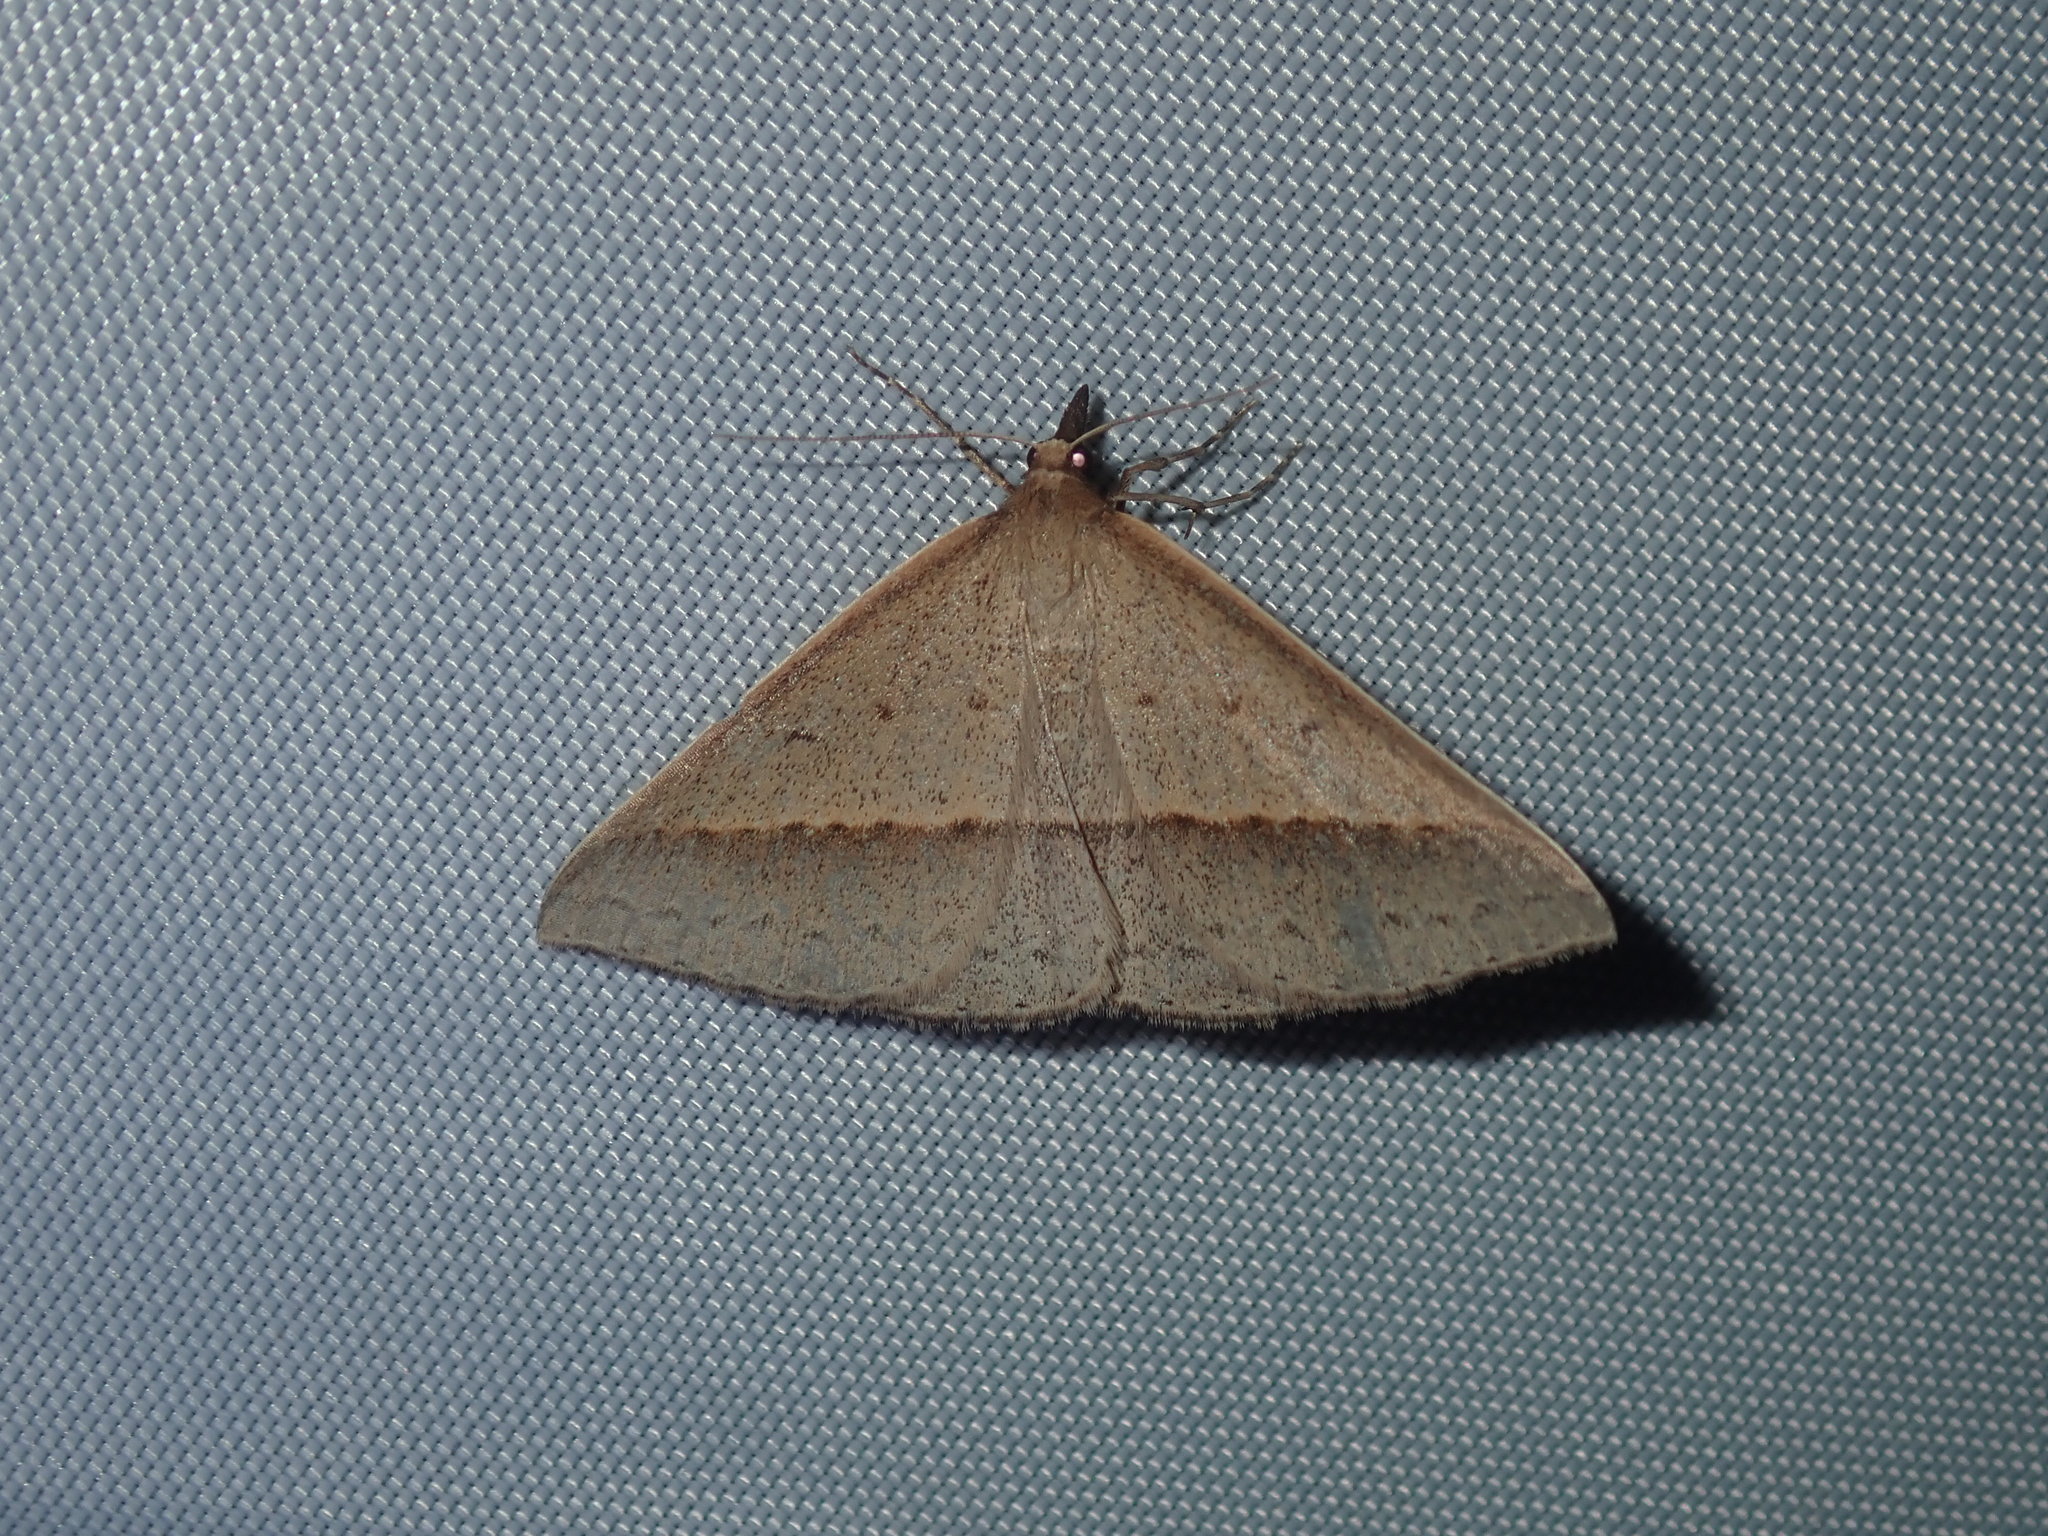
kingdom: Animalia
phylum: Arthropoda
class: Insecta
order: Lepidoptera
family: Geometridae
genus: Epidesmia
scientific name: Epidesmia tryxaria
